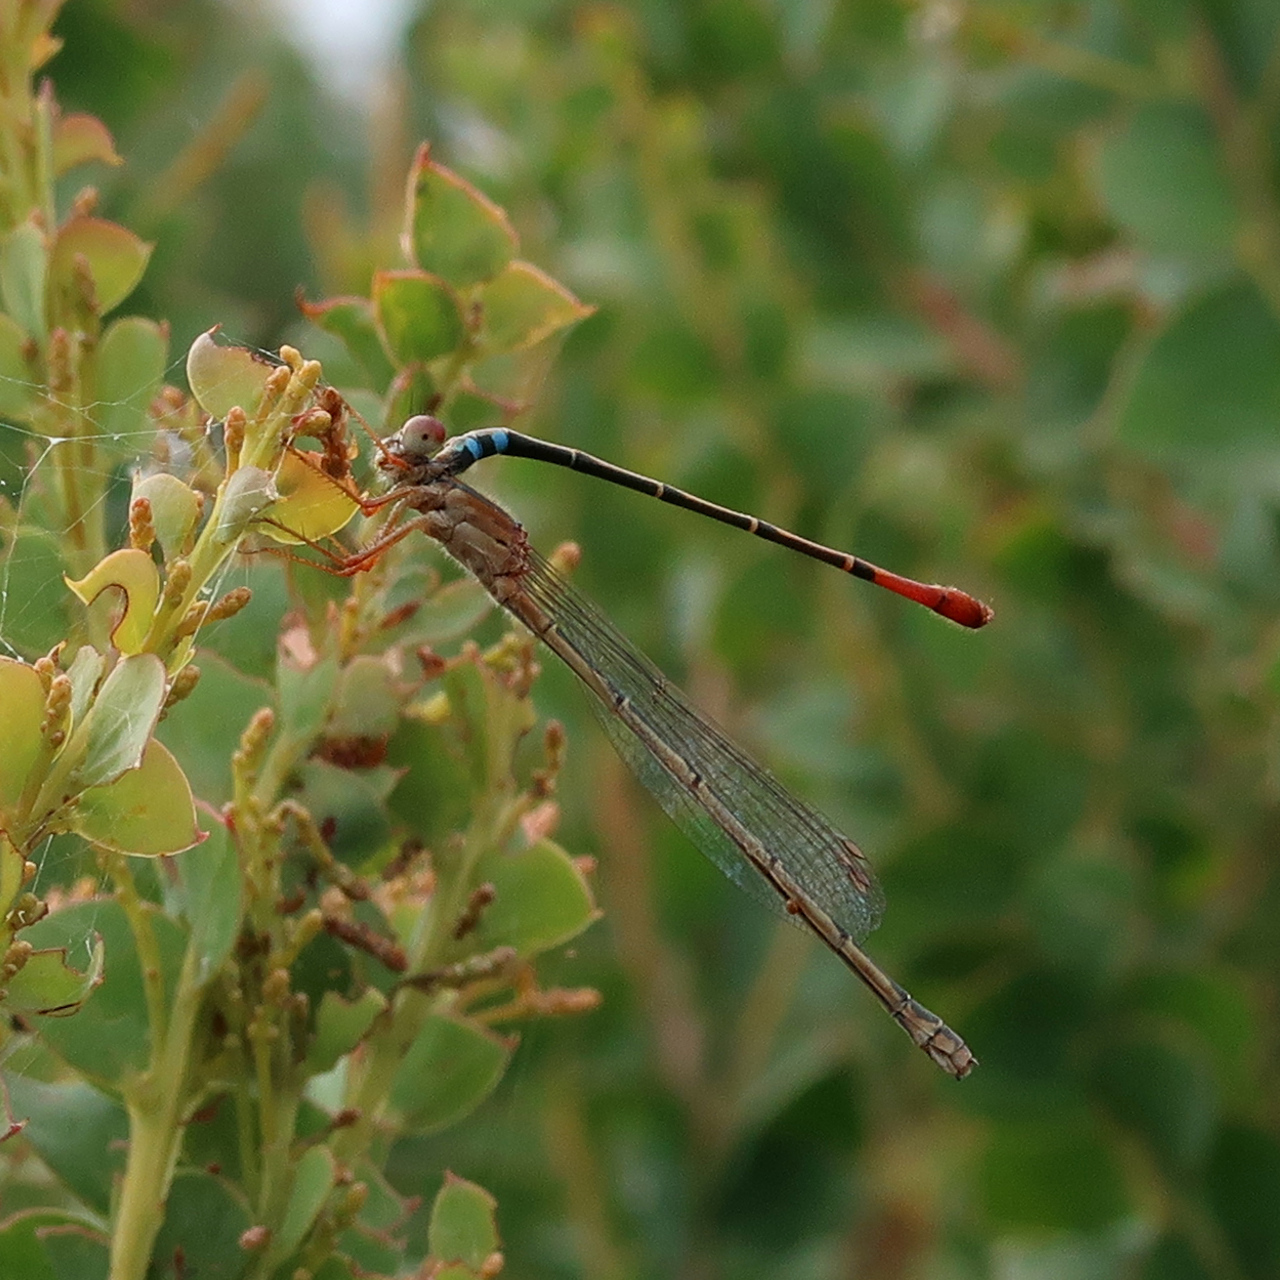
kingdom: Animalia
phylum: Arthropoda
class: Insecta
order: Odonata
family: Coenagrionidae
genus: Xanthagrion
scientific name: Xanthagrion erythroneurum
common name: Red and blue damsel
